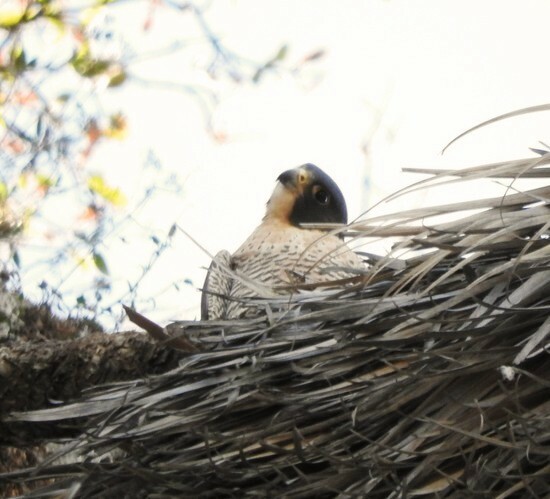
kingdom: Animalia
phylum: Chordata
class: Aves
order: Falconiformes
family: Falconidae
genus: Falco
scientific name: Falco peregrinus
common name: Peregrine falcon
